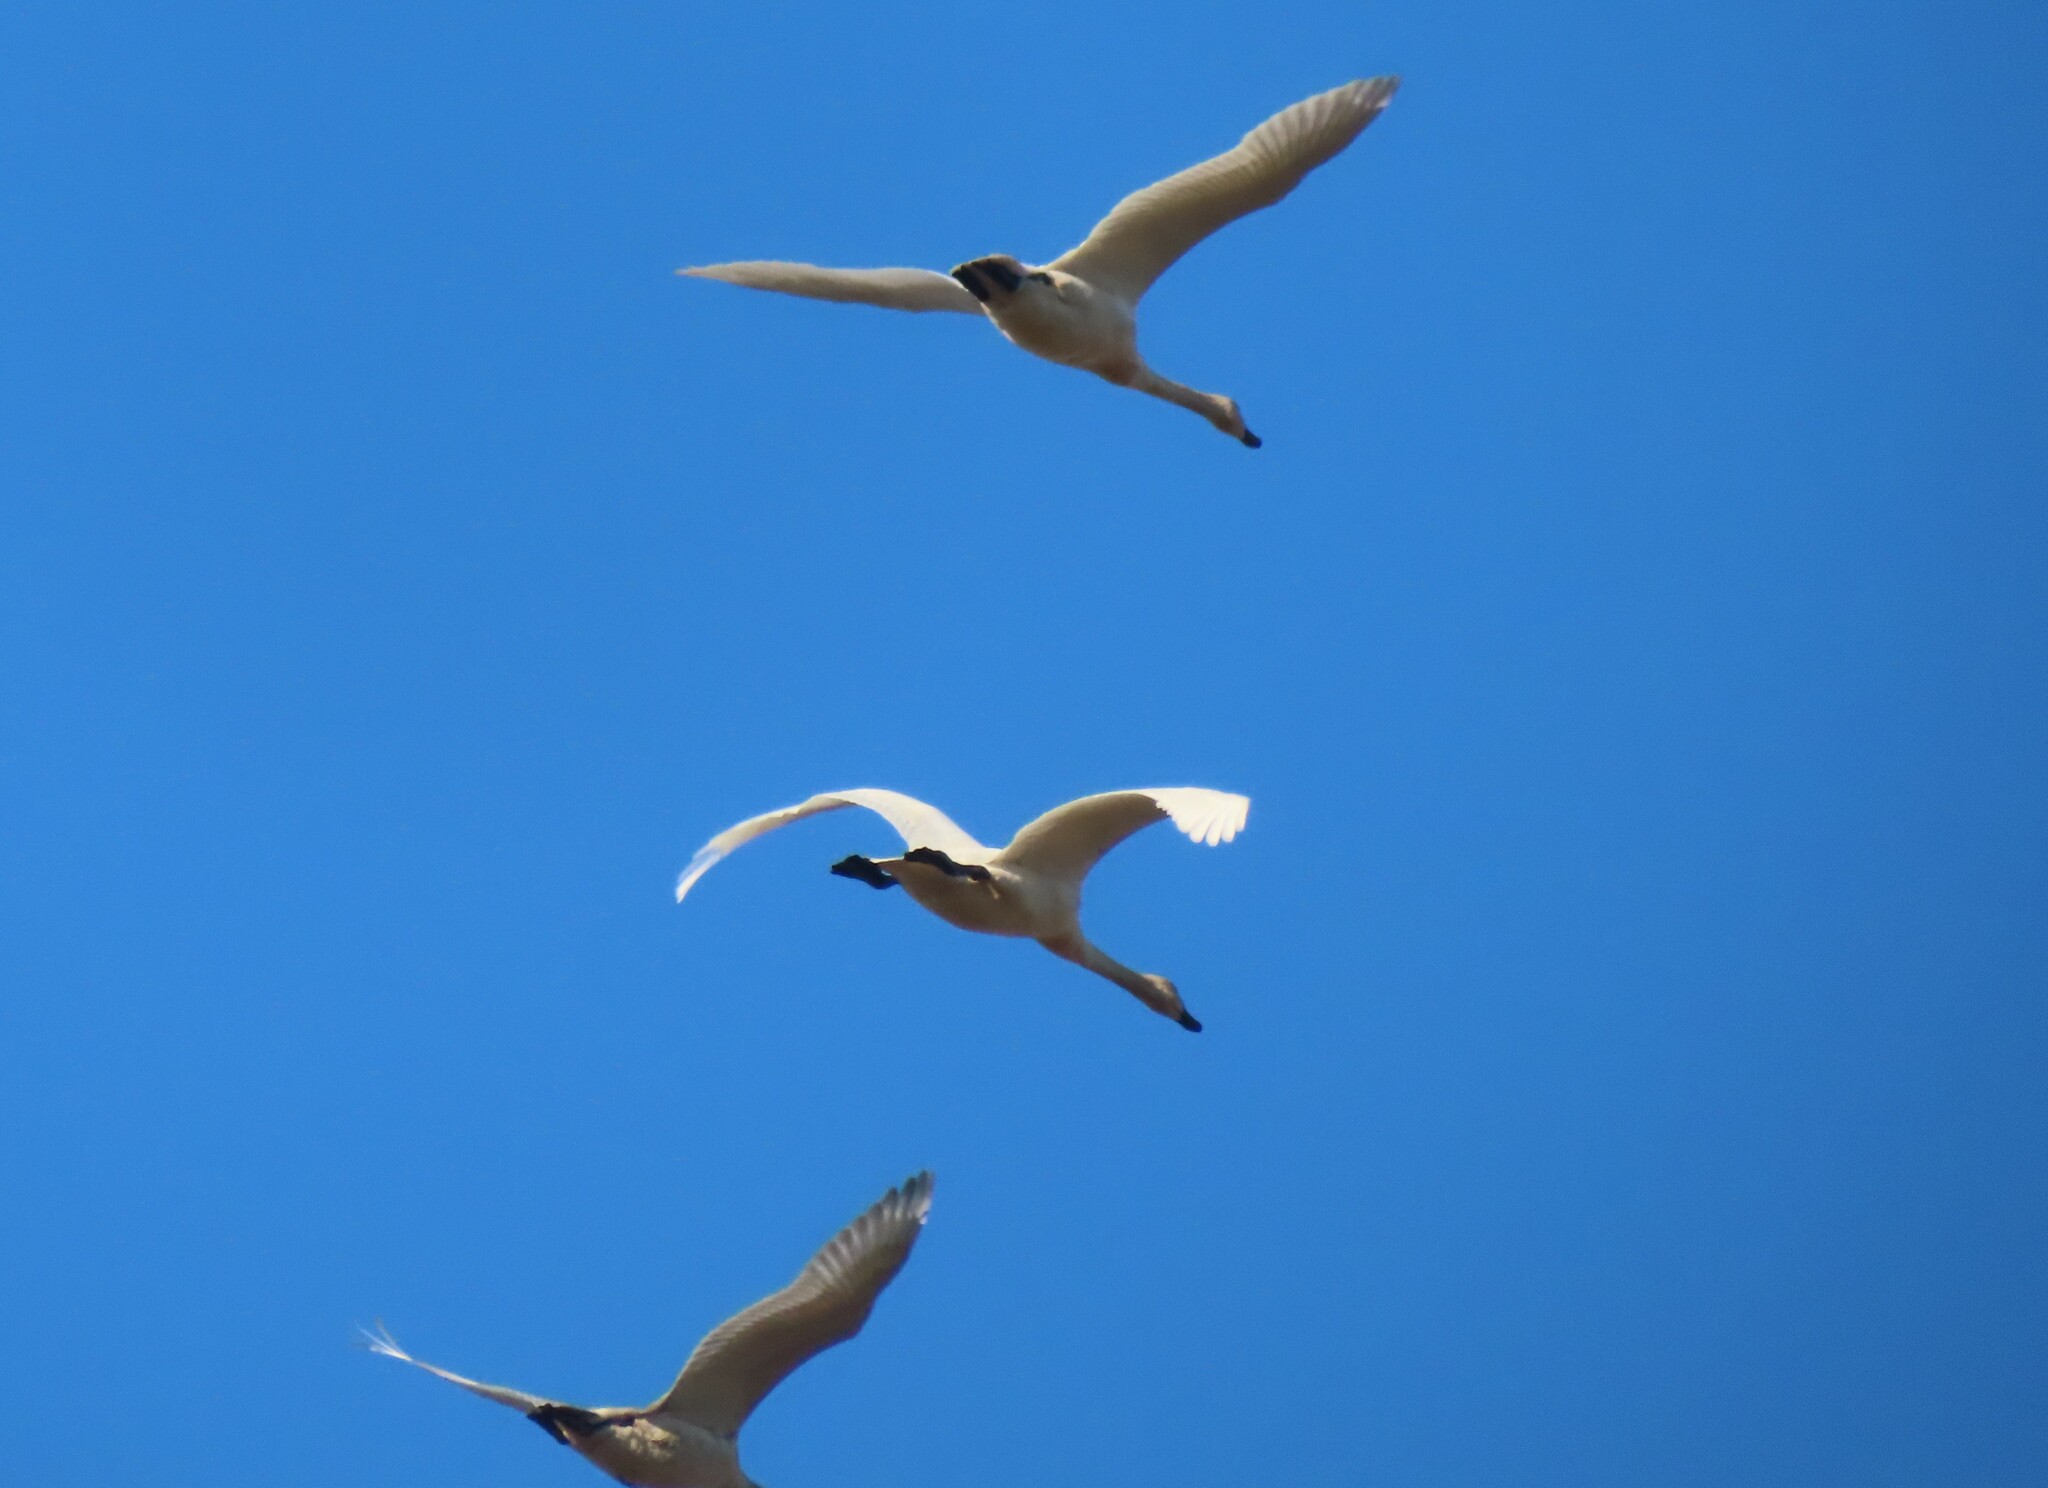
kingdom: Animalia
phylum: Chordata
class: Aves
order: Anseriformes
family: Anatidae
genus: Cygnus
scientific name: Cygnus columbianus
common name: Tundra swan
